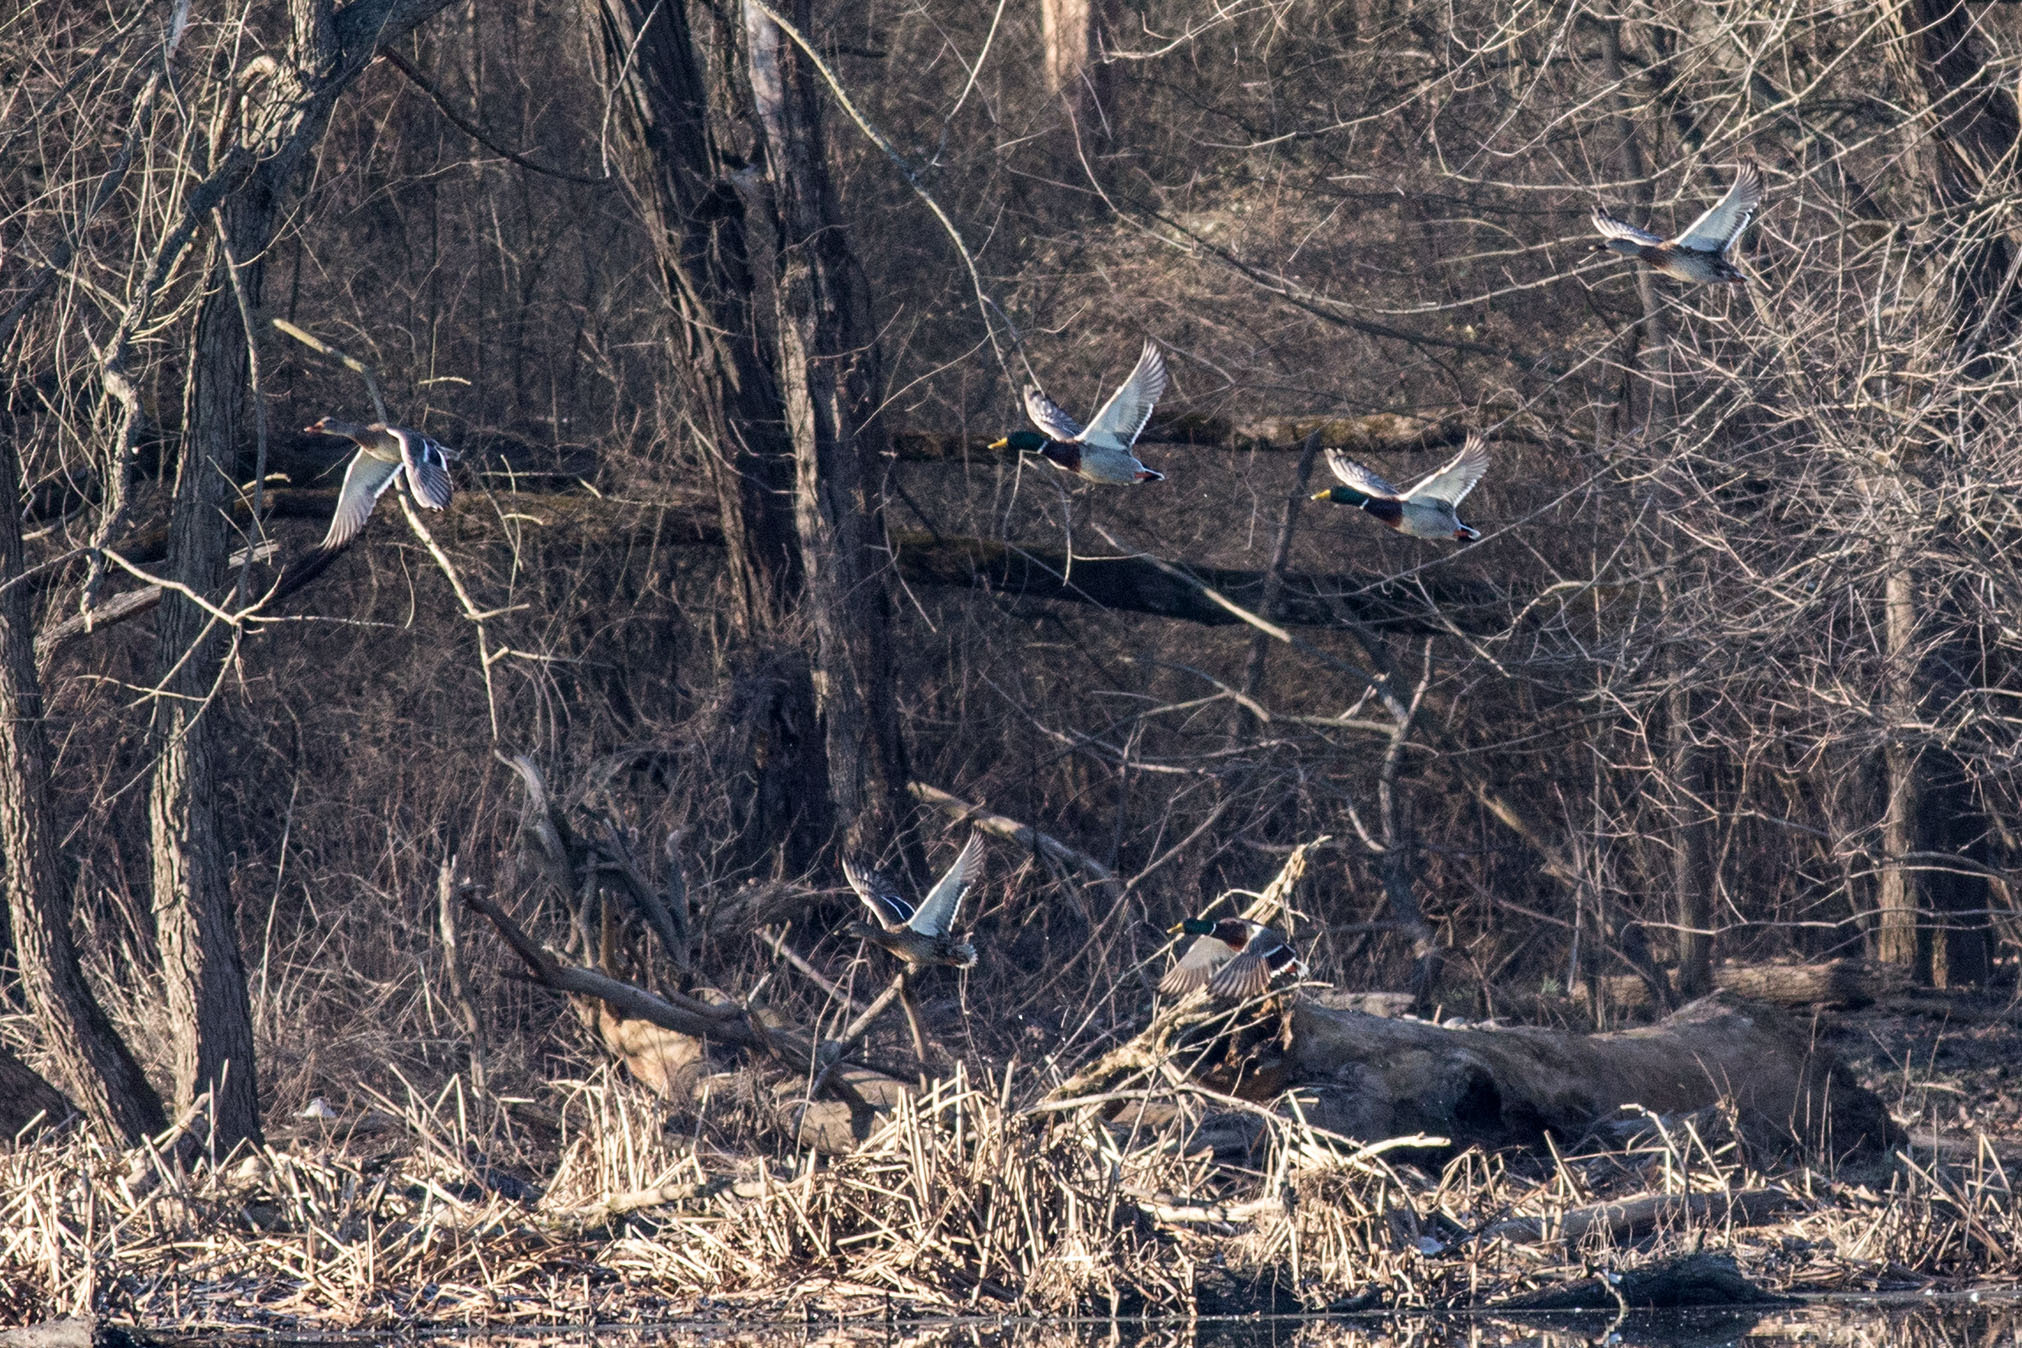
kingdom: Animalia
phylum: Chordata
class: Aves
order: Anseriformes
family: Anatidae
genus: Anas
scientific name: Anas platyrhynchos
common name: Mallard
